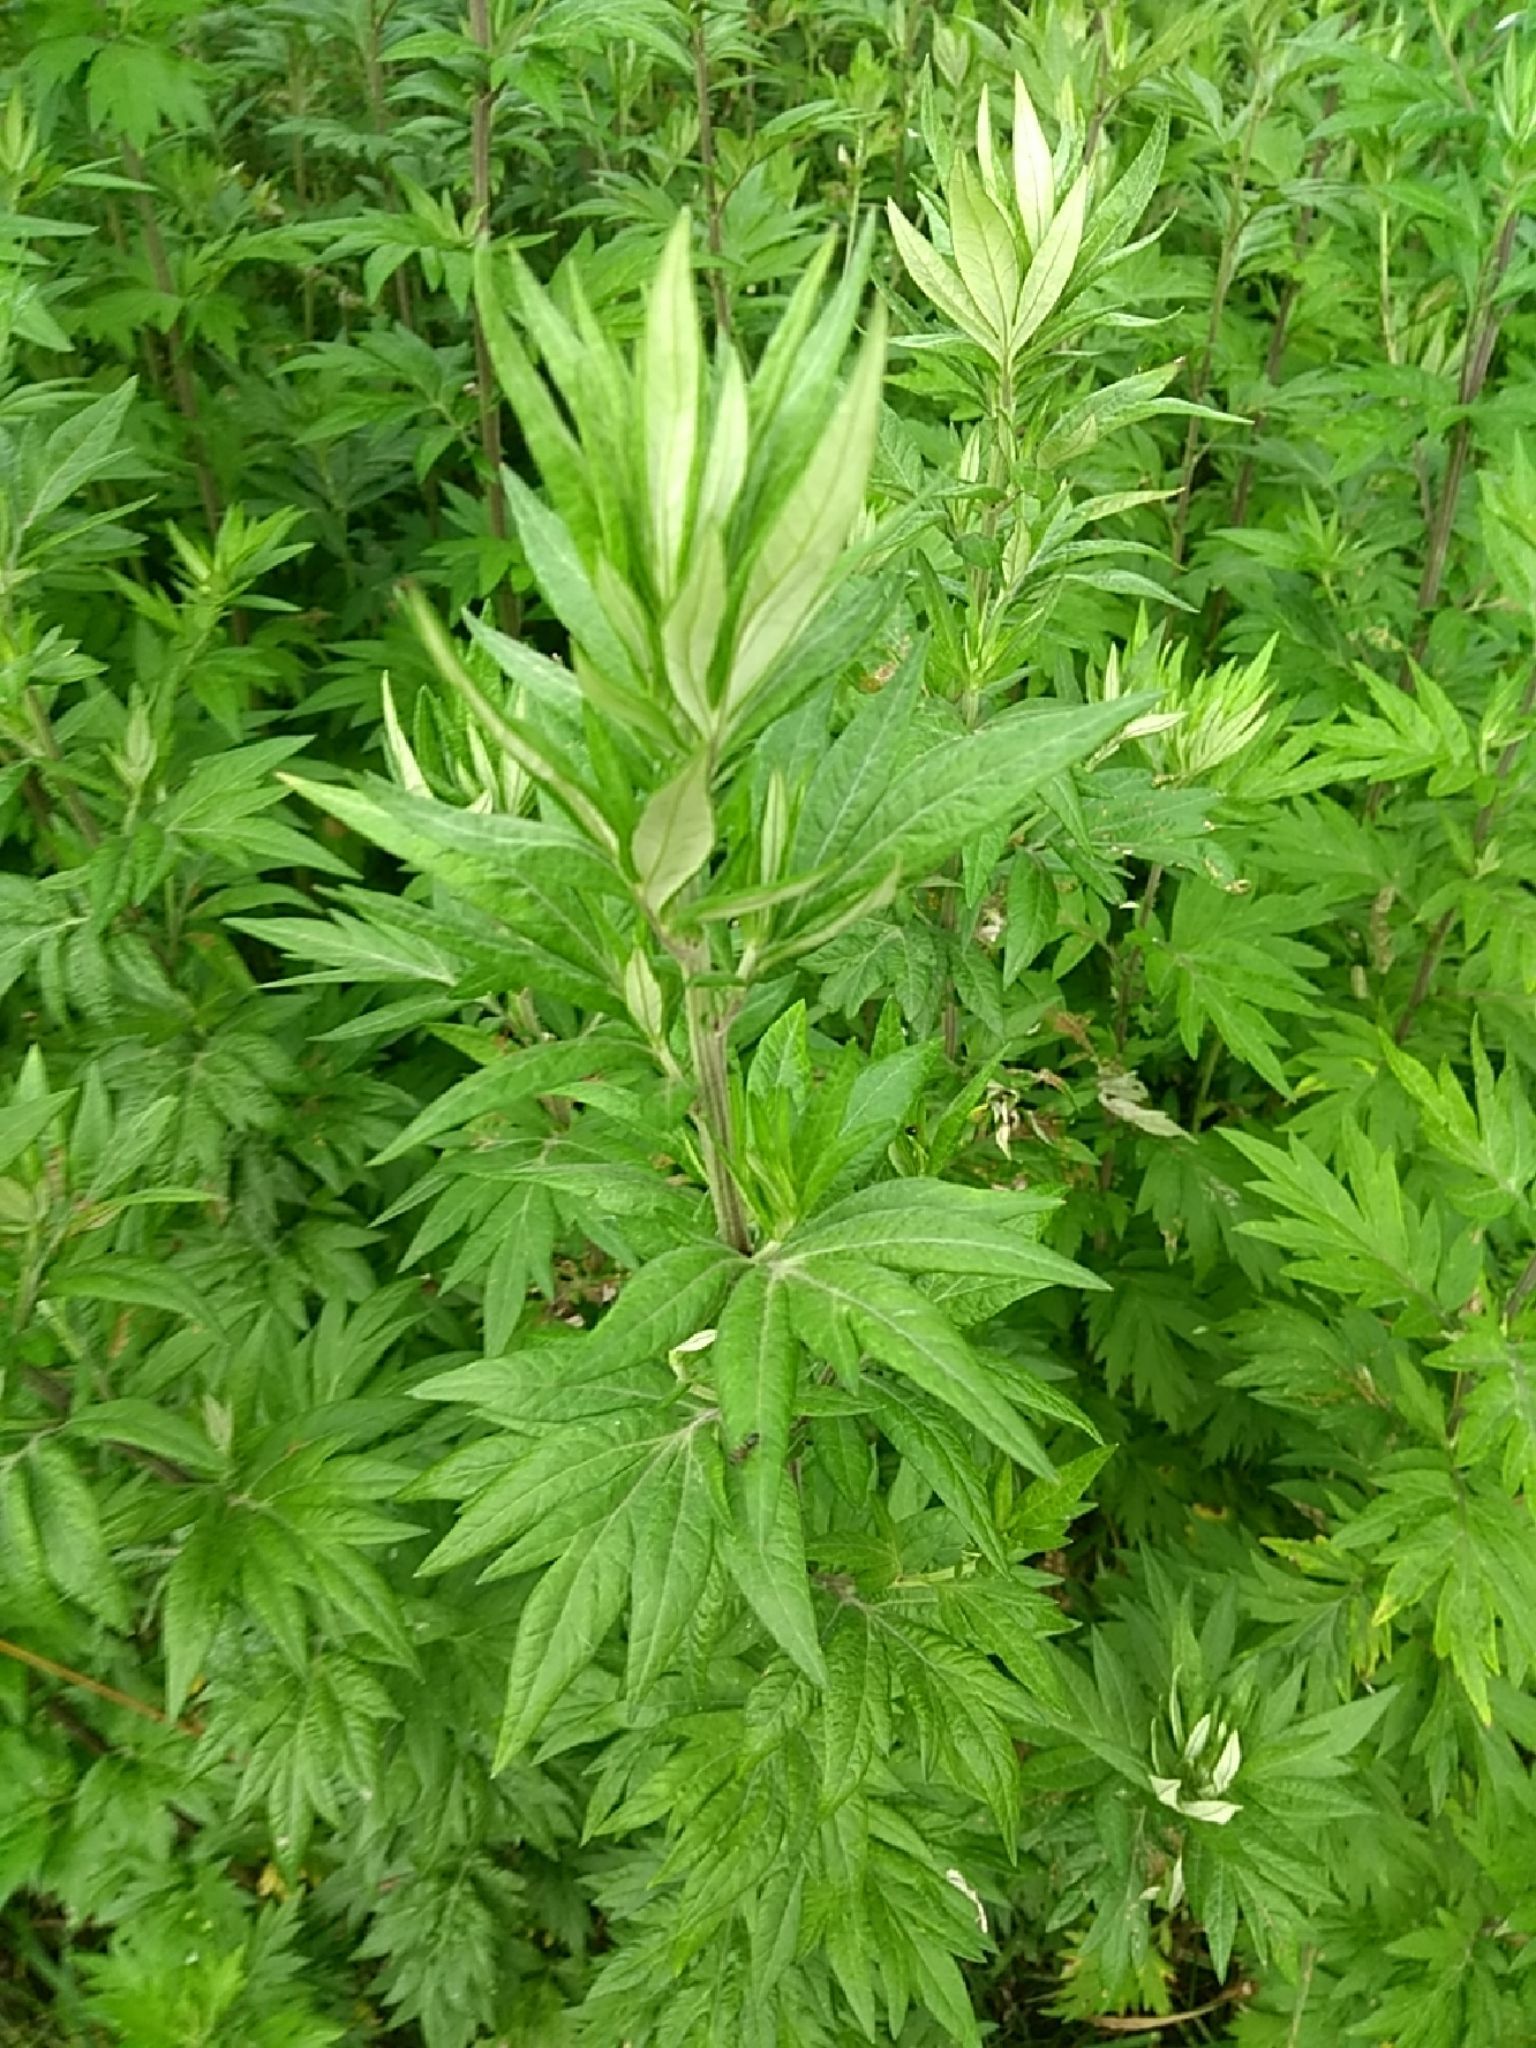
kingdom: Plantae
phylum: Tracheophyta
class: Magnoliopsida
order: Asterales
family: Asteraceae
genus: Artemisia
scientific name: Artemisia vulgaris
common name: Mugwort
